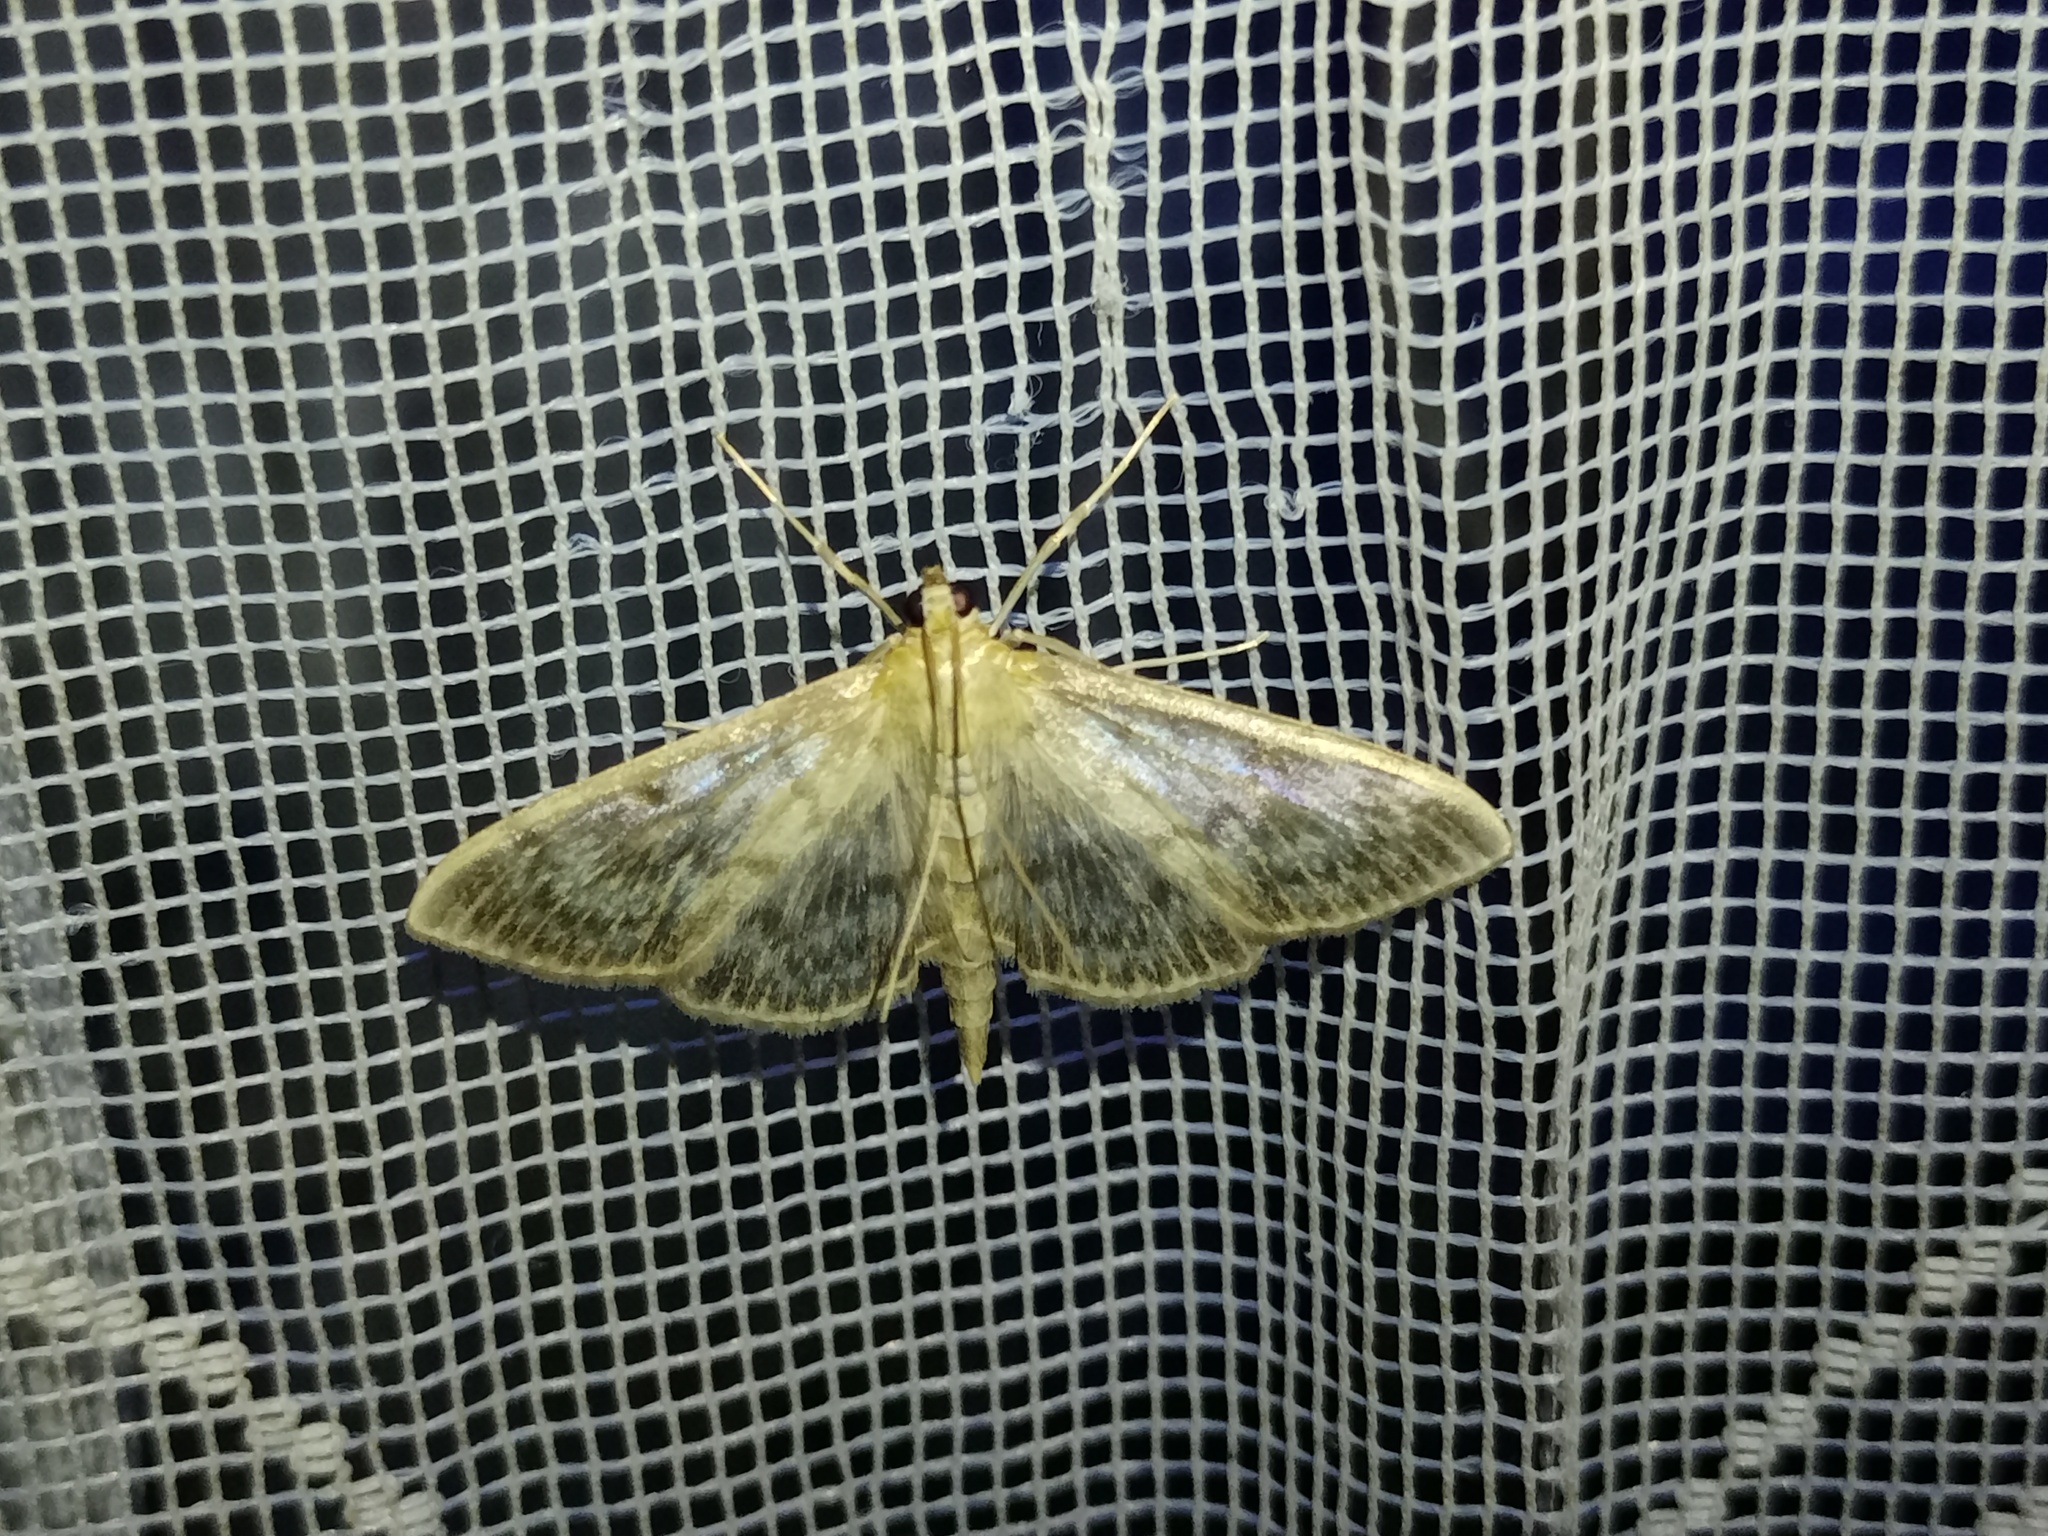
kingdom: Animalia
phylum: Arthropoda
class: Insecta
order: Lepidoptera
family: Crambidae
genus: Patania
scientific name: Patania ruralis
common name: Mother of pearl
